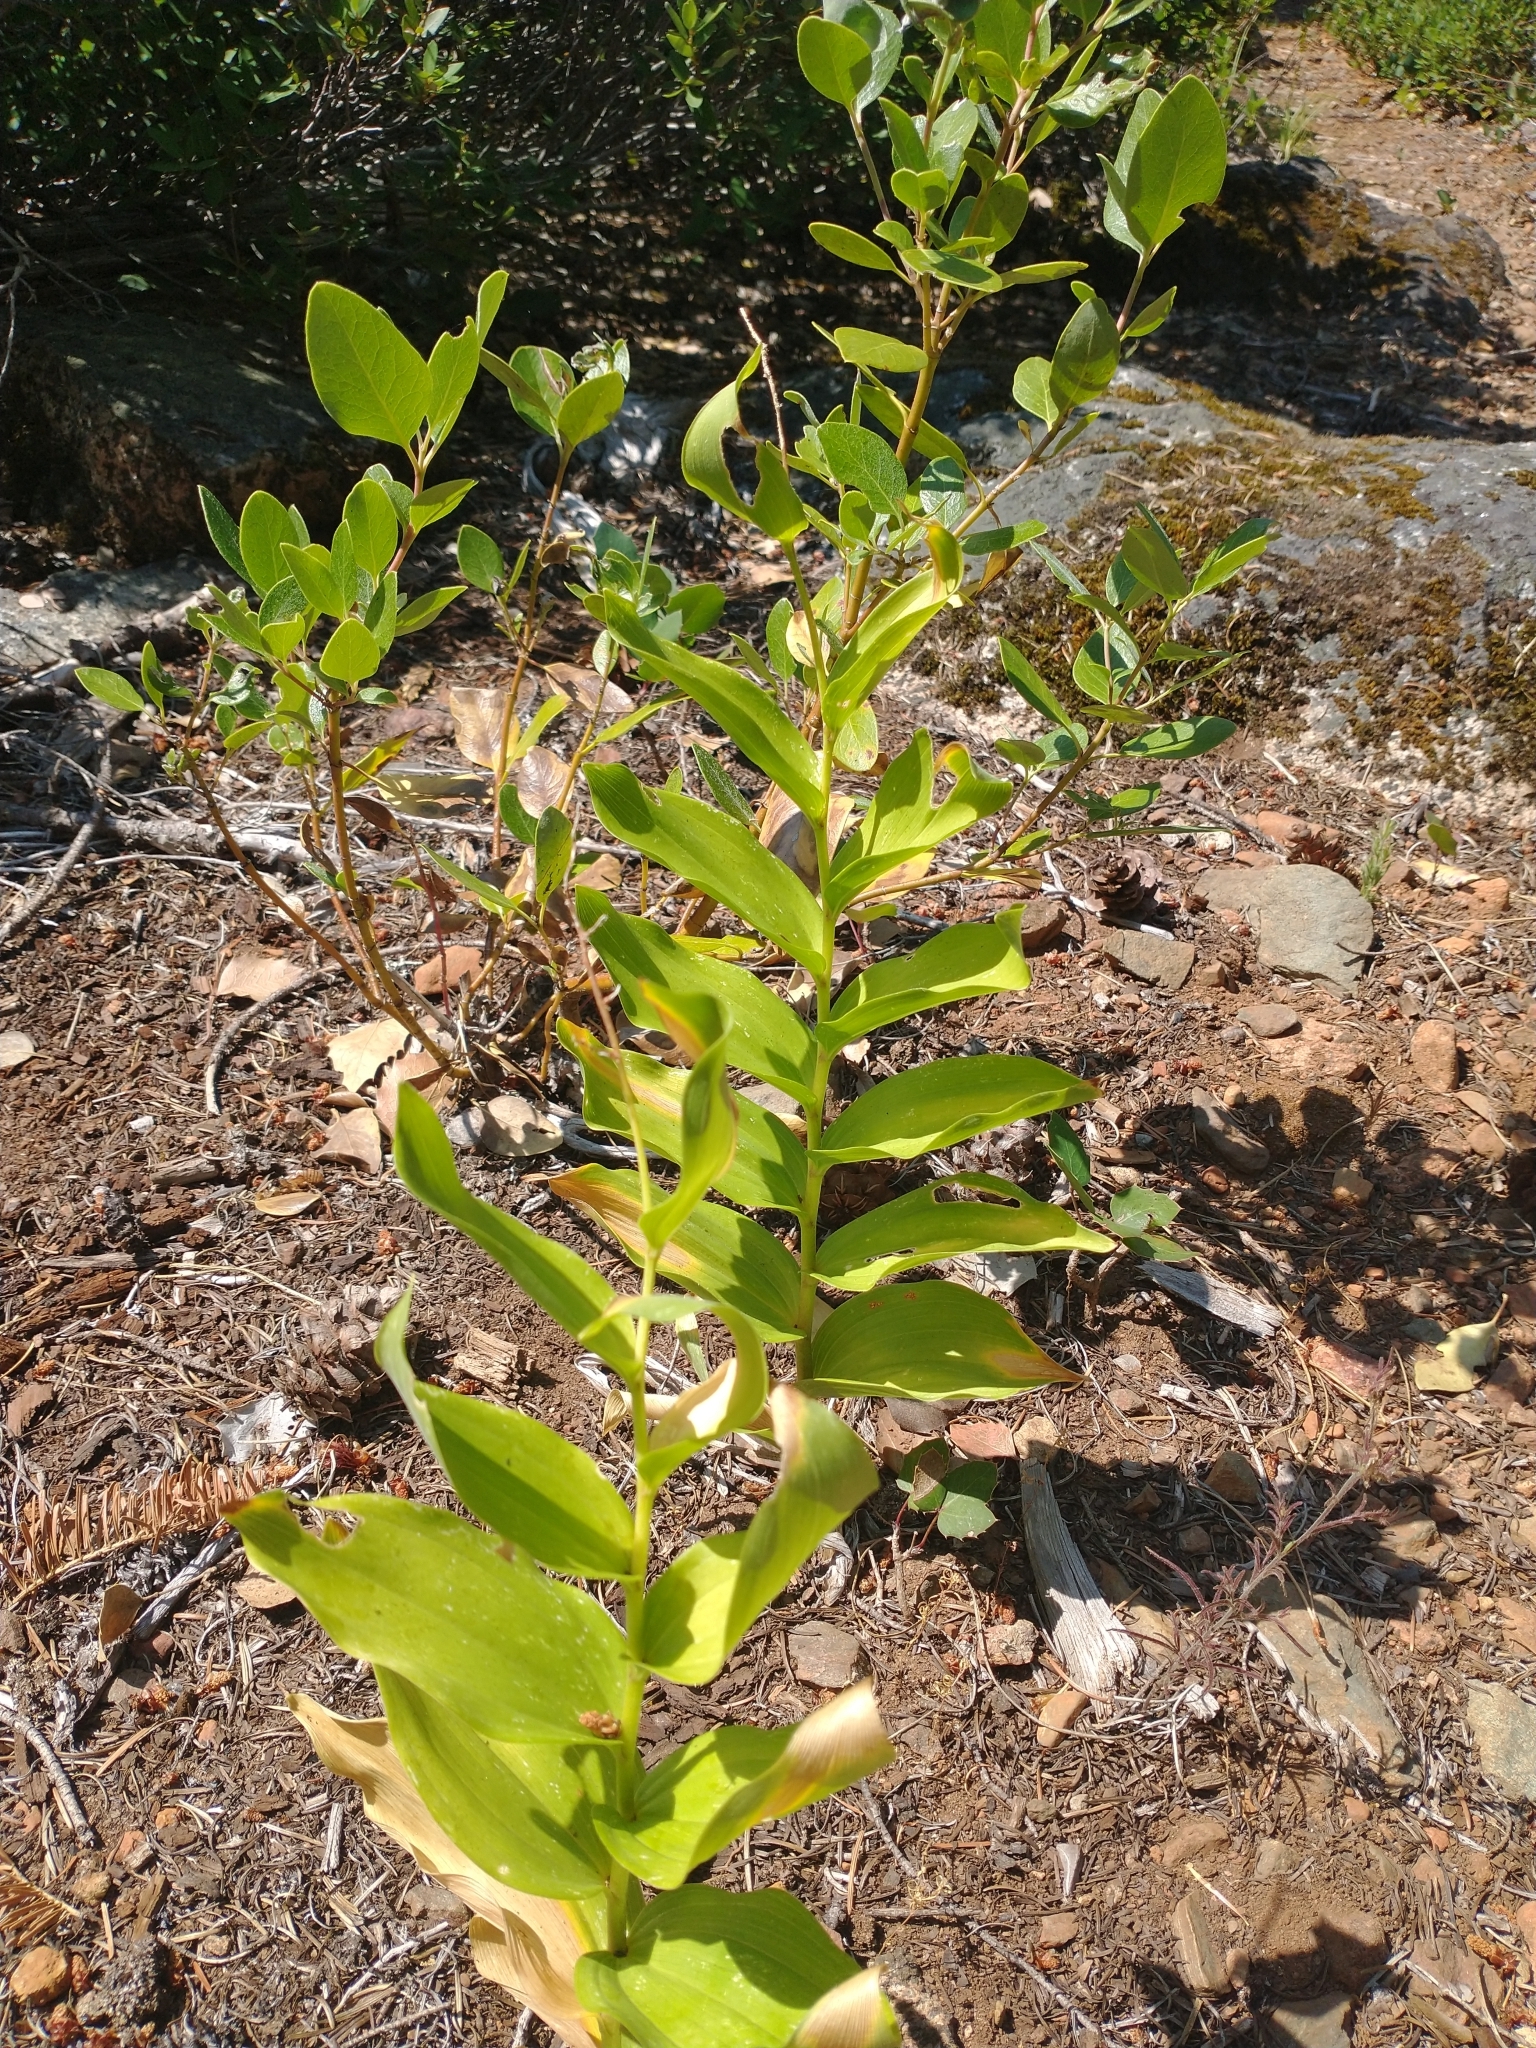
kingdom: Plantae
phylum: Tracheophyta
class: Liliopsida
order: Asparagales
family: Asparagaceae
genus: Maianthemum
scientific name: Maianthemum racemosum
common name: False spikenard
